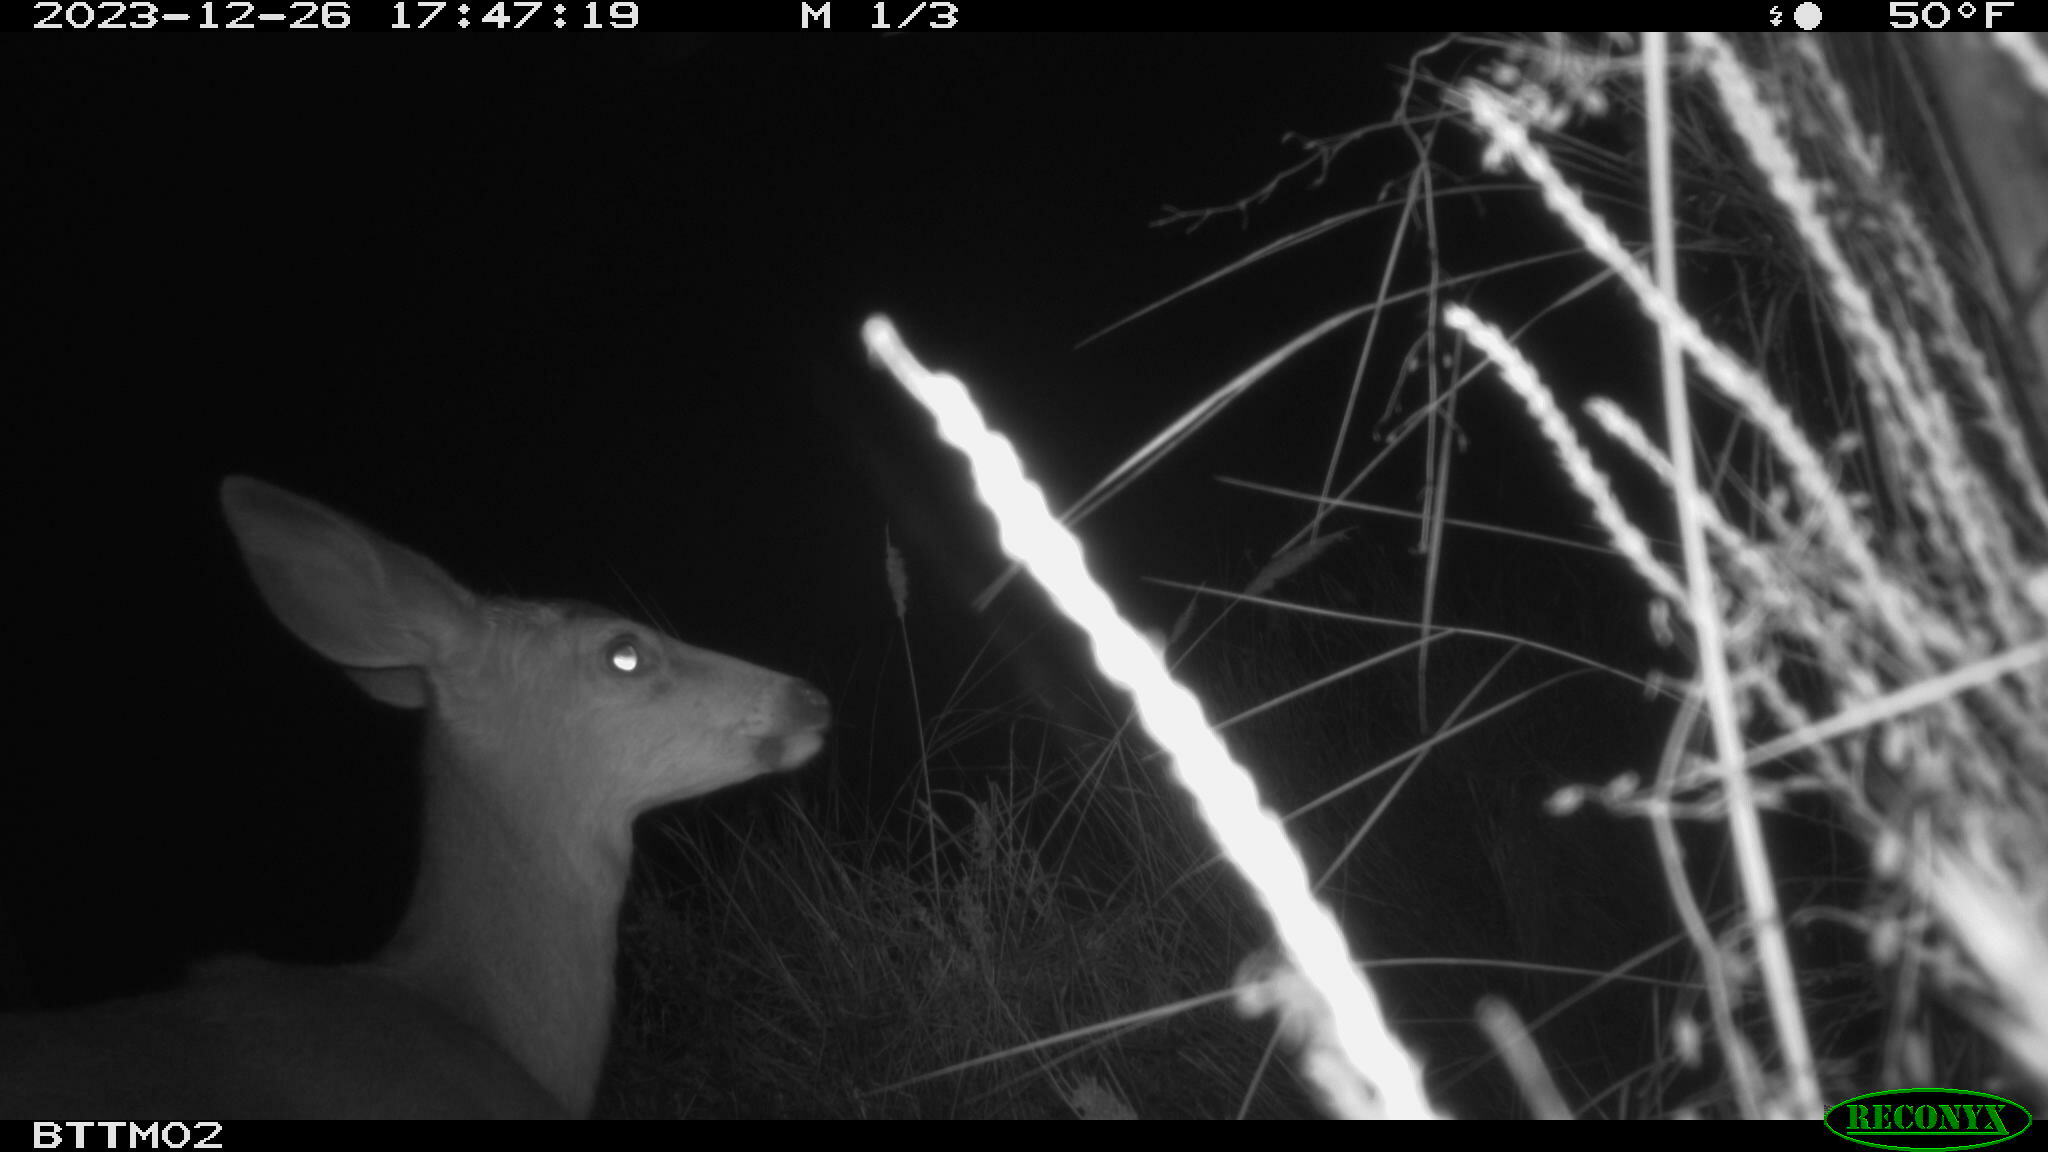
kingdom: Animalia
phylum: Chordata
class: Mammalia
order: Artiodactyla
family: Cervidae
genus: Odocoileus
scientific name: Odocoileus hemionus
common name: Mule deer
